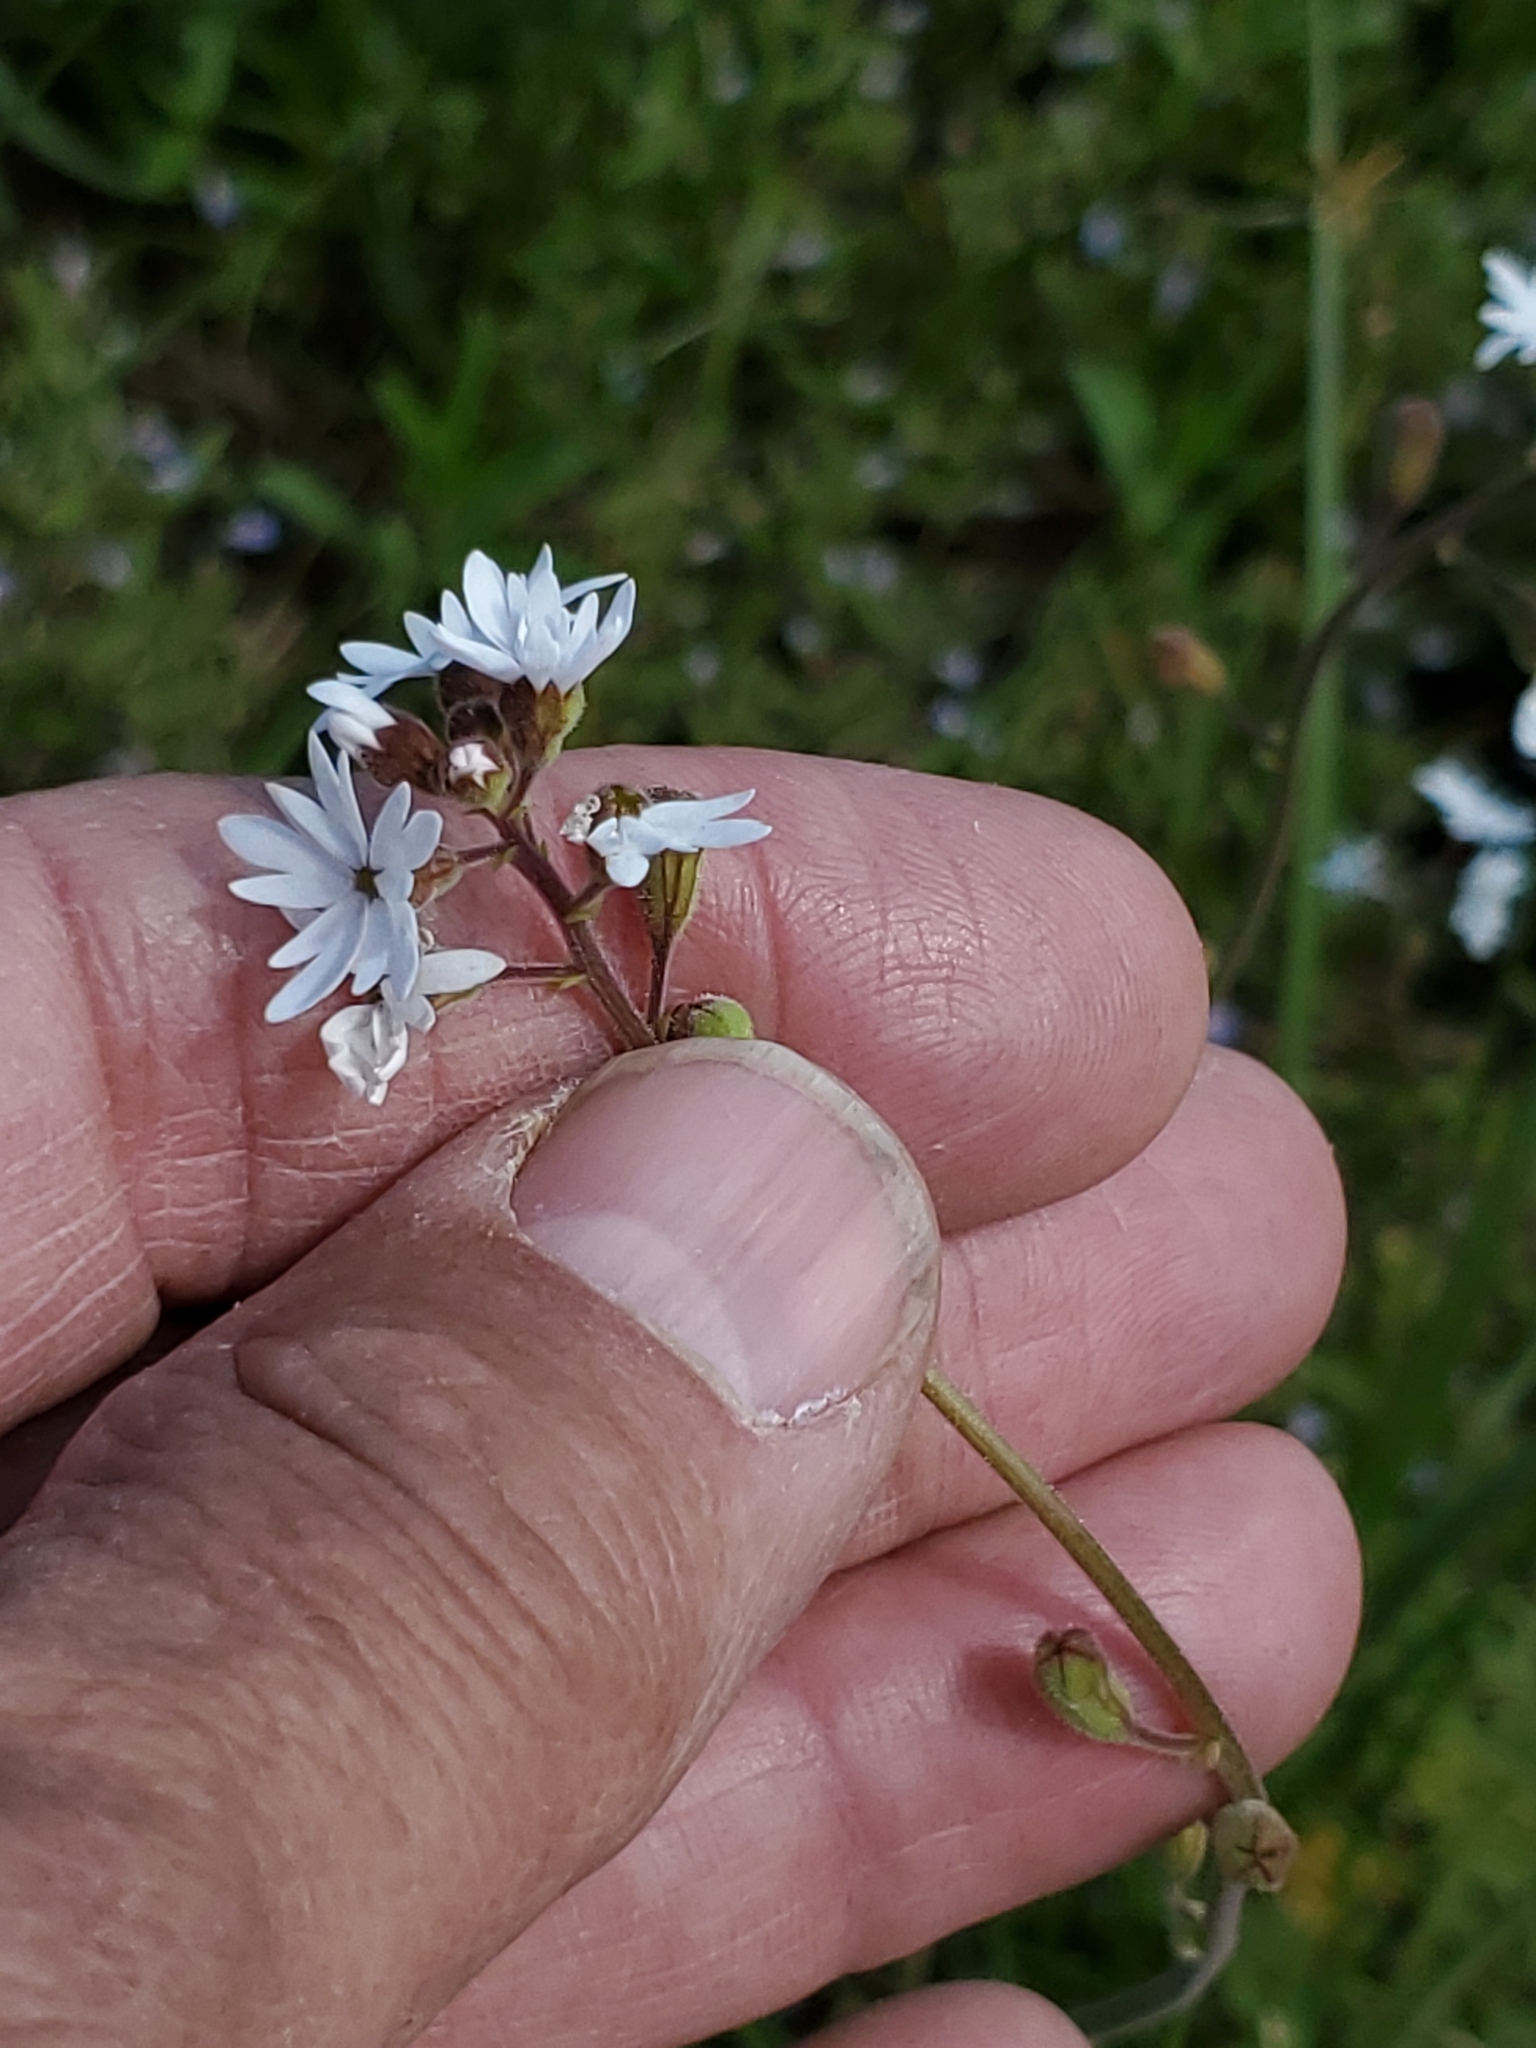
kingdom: Plantae
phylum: Tracheophyta
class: Magnoliopsida
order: Saxifragales
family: Saxifragaceae
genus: Lithophragma
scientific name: Lithophragma parviflorum
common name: Small-flowered fringe-cup
